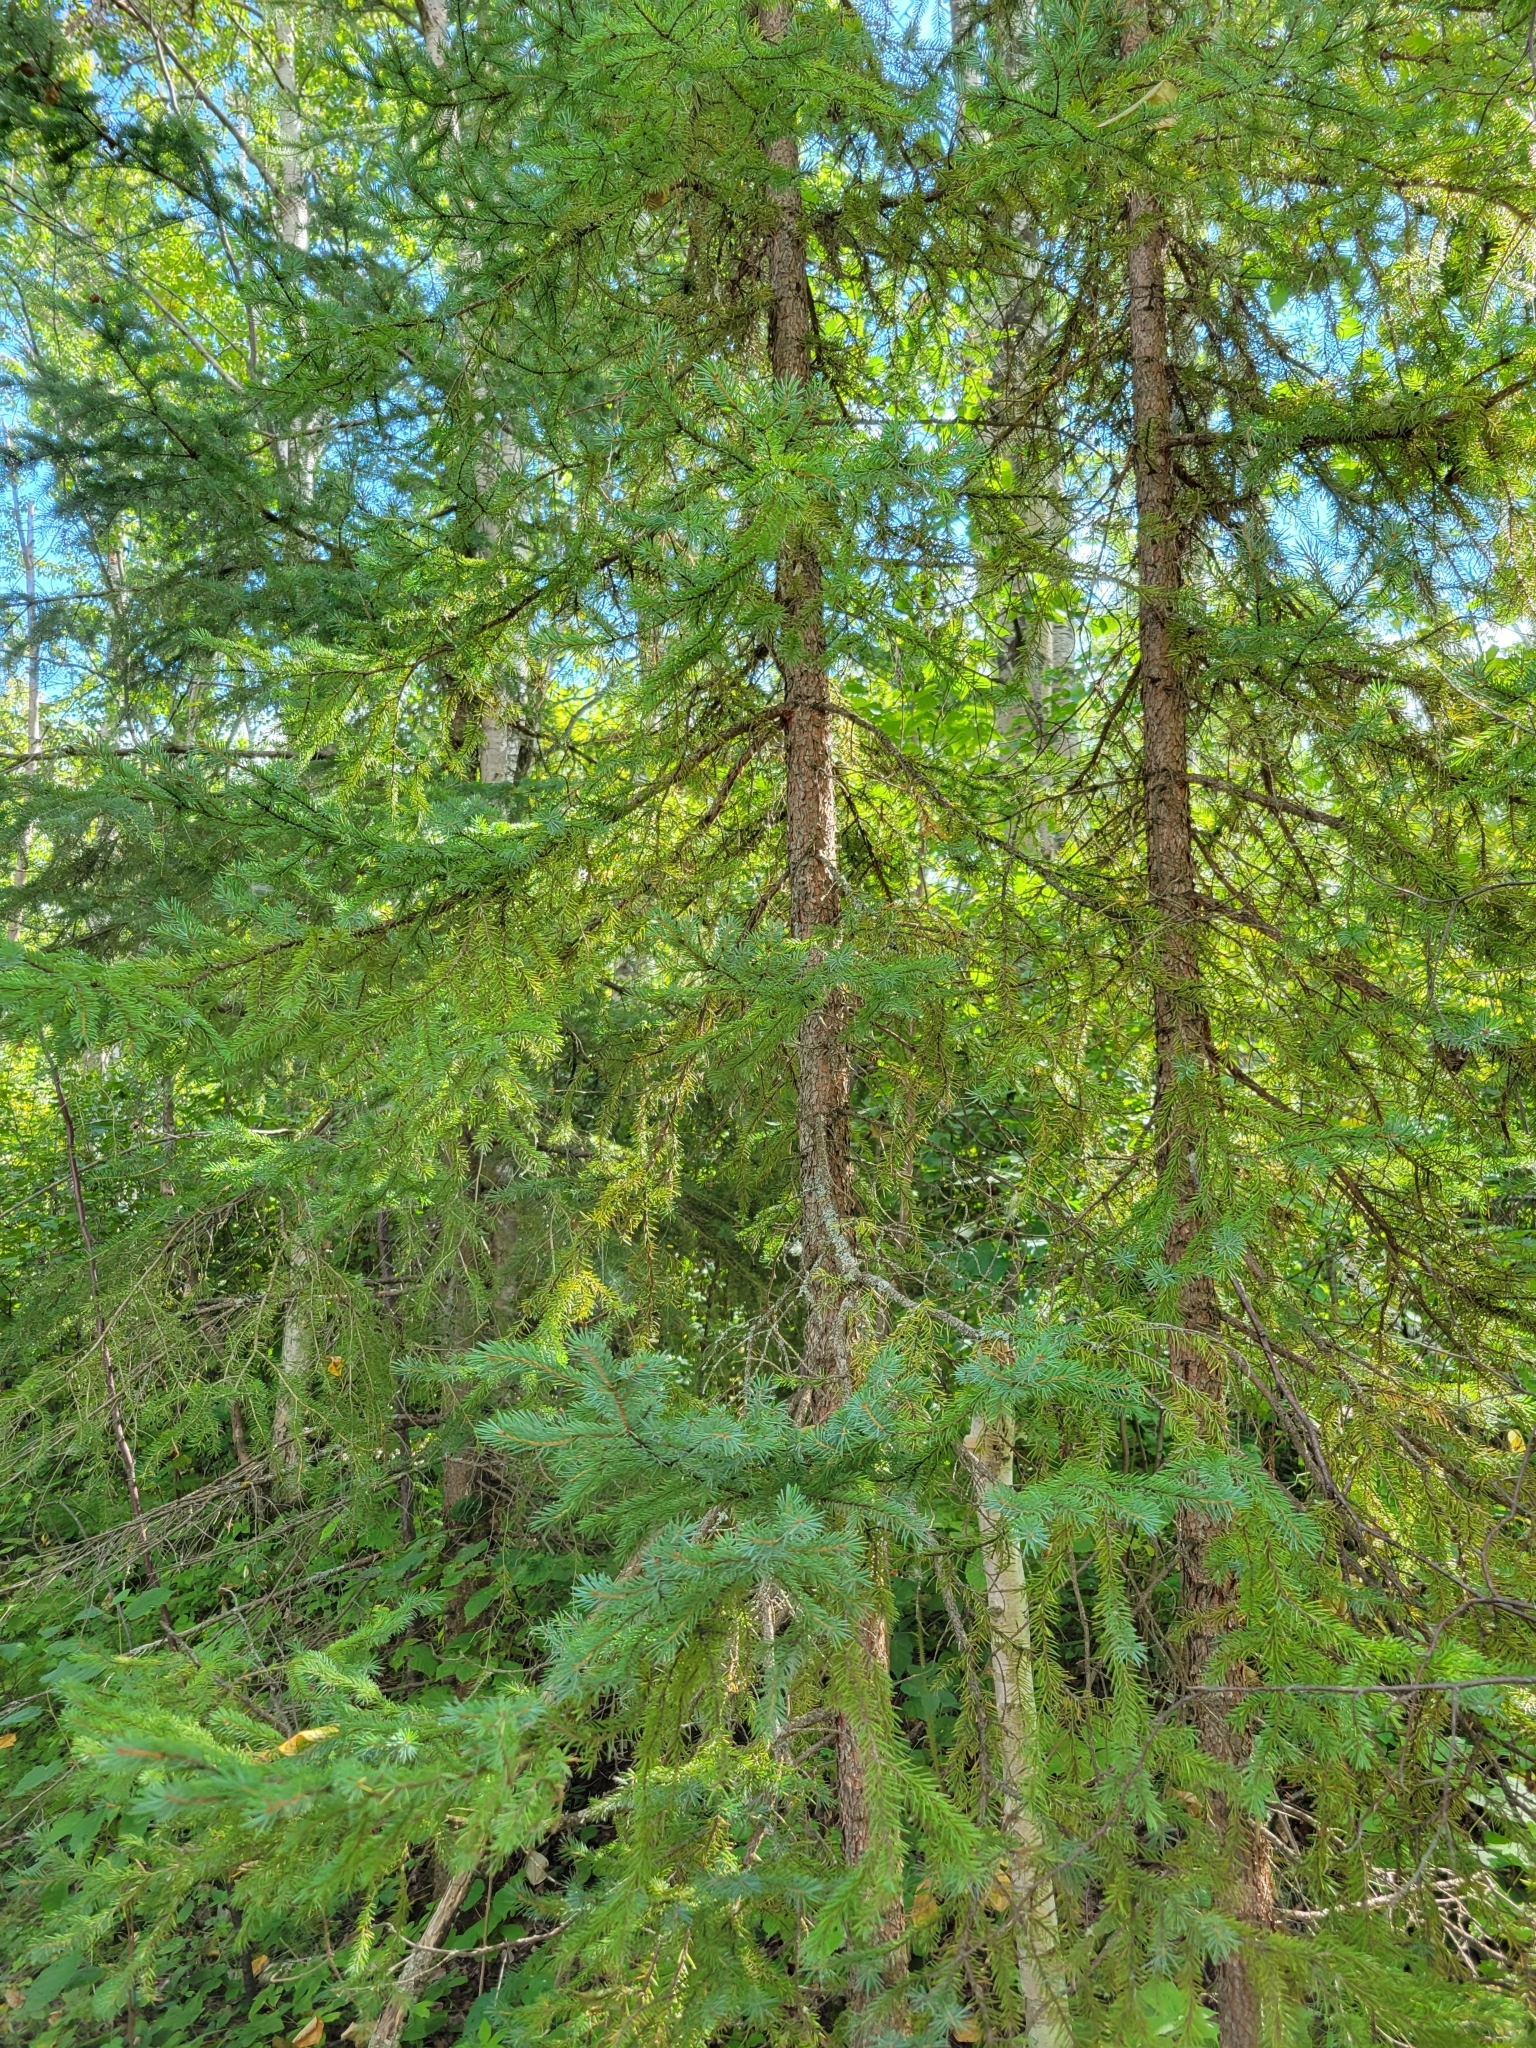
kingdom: Plantae
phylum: Tracheophyta
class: Pinopsida
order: Pinales
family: Pinaceae
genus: Picea
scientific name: Picea mariana
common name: Black spruce
